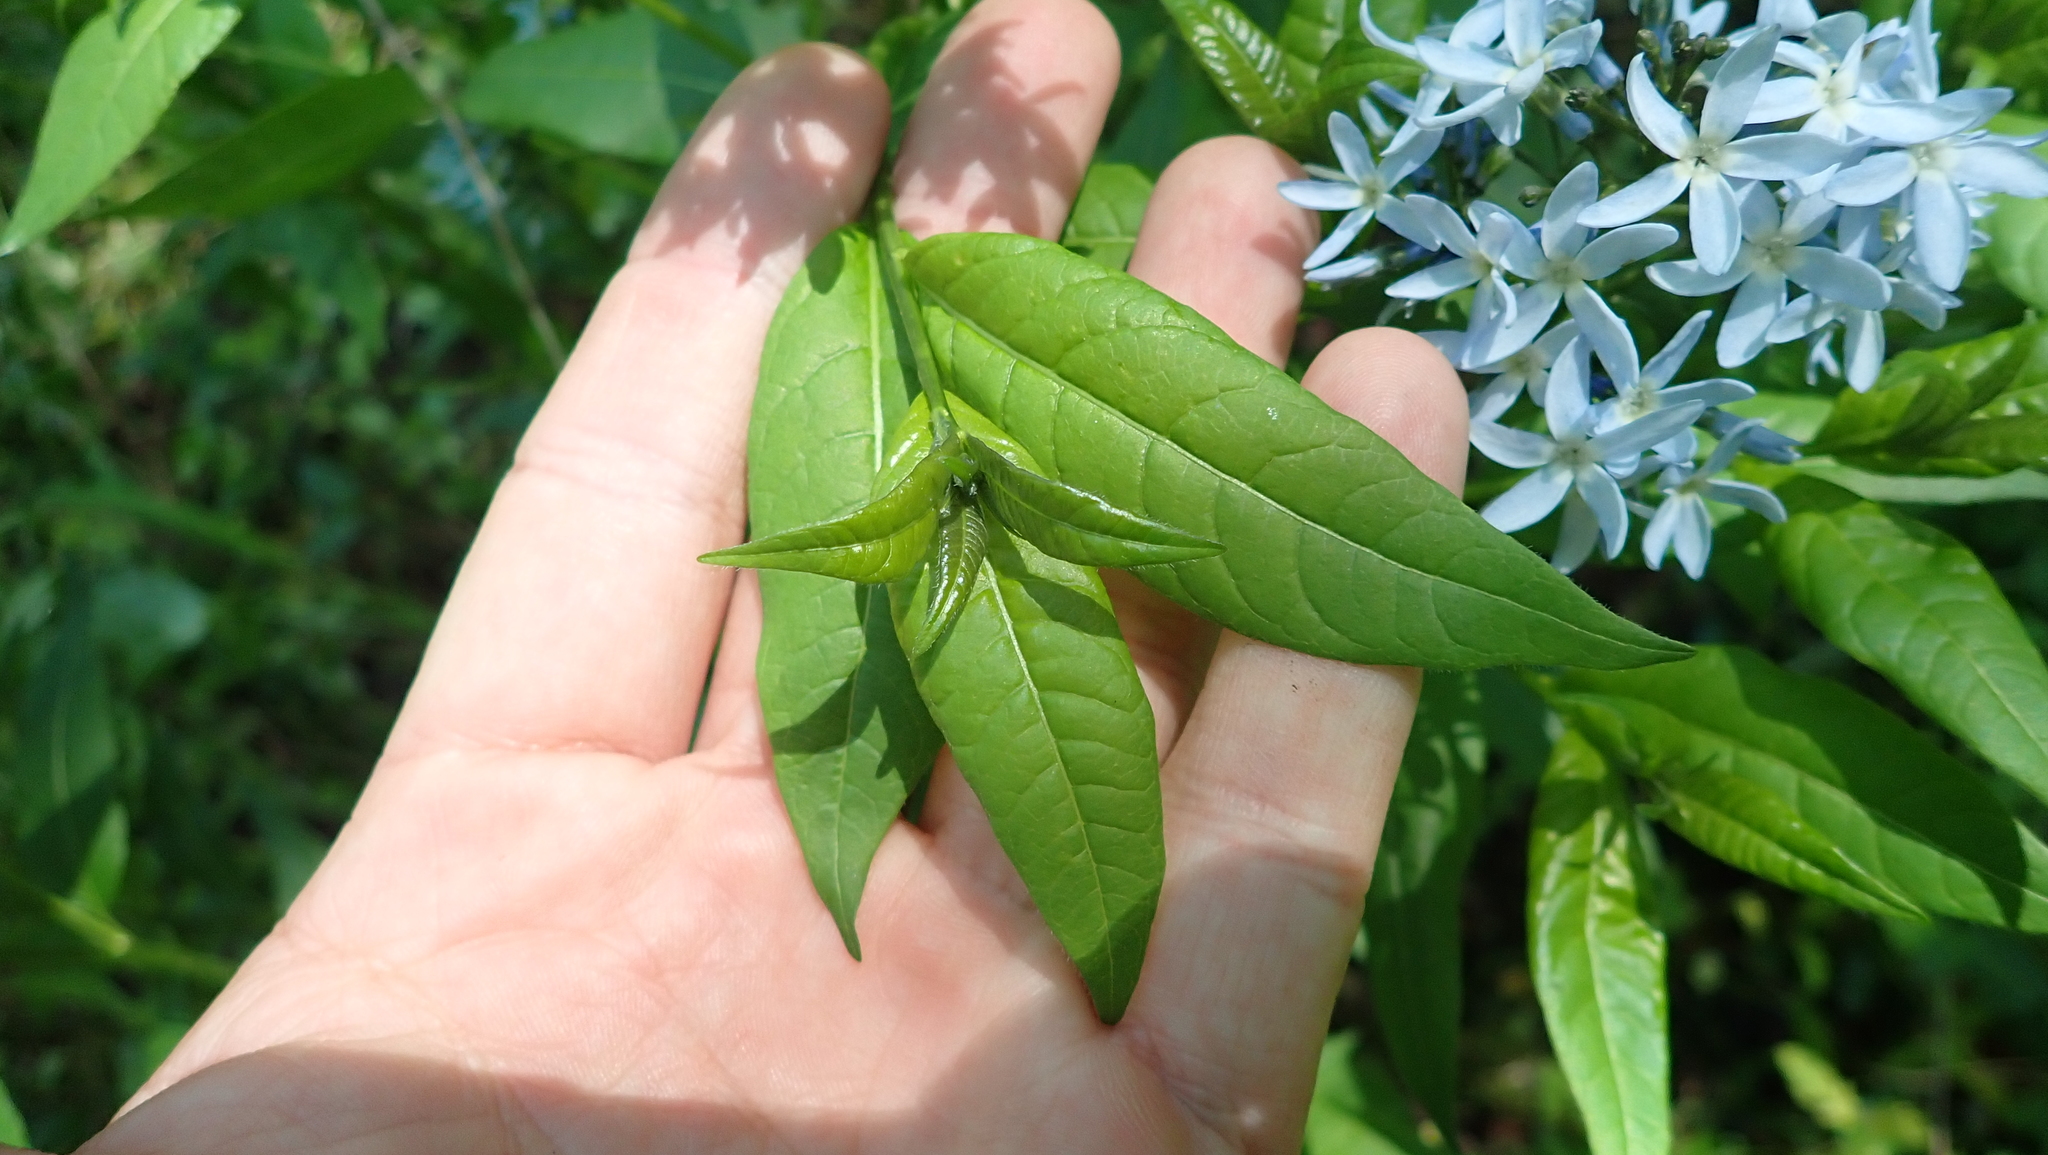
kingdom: Plantae
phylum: Tracheophyta
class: Magnoliopsida
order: Gentianales
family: Apocynaceae
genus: Amsonia
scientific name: Amsonia tabernaemontana
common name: Texas-star
